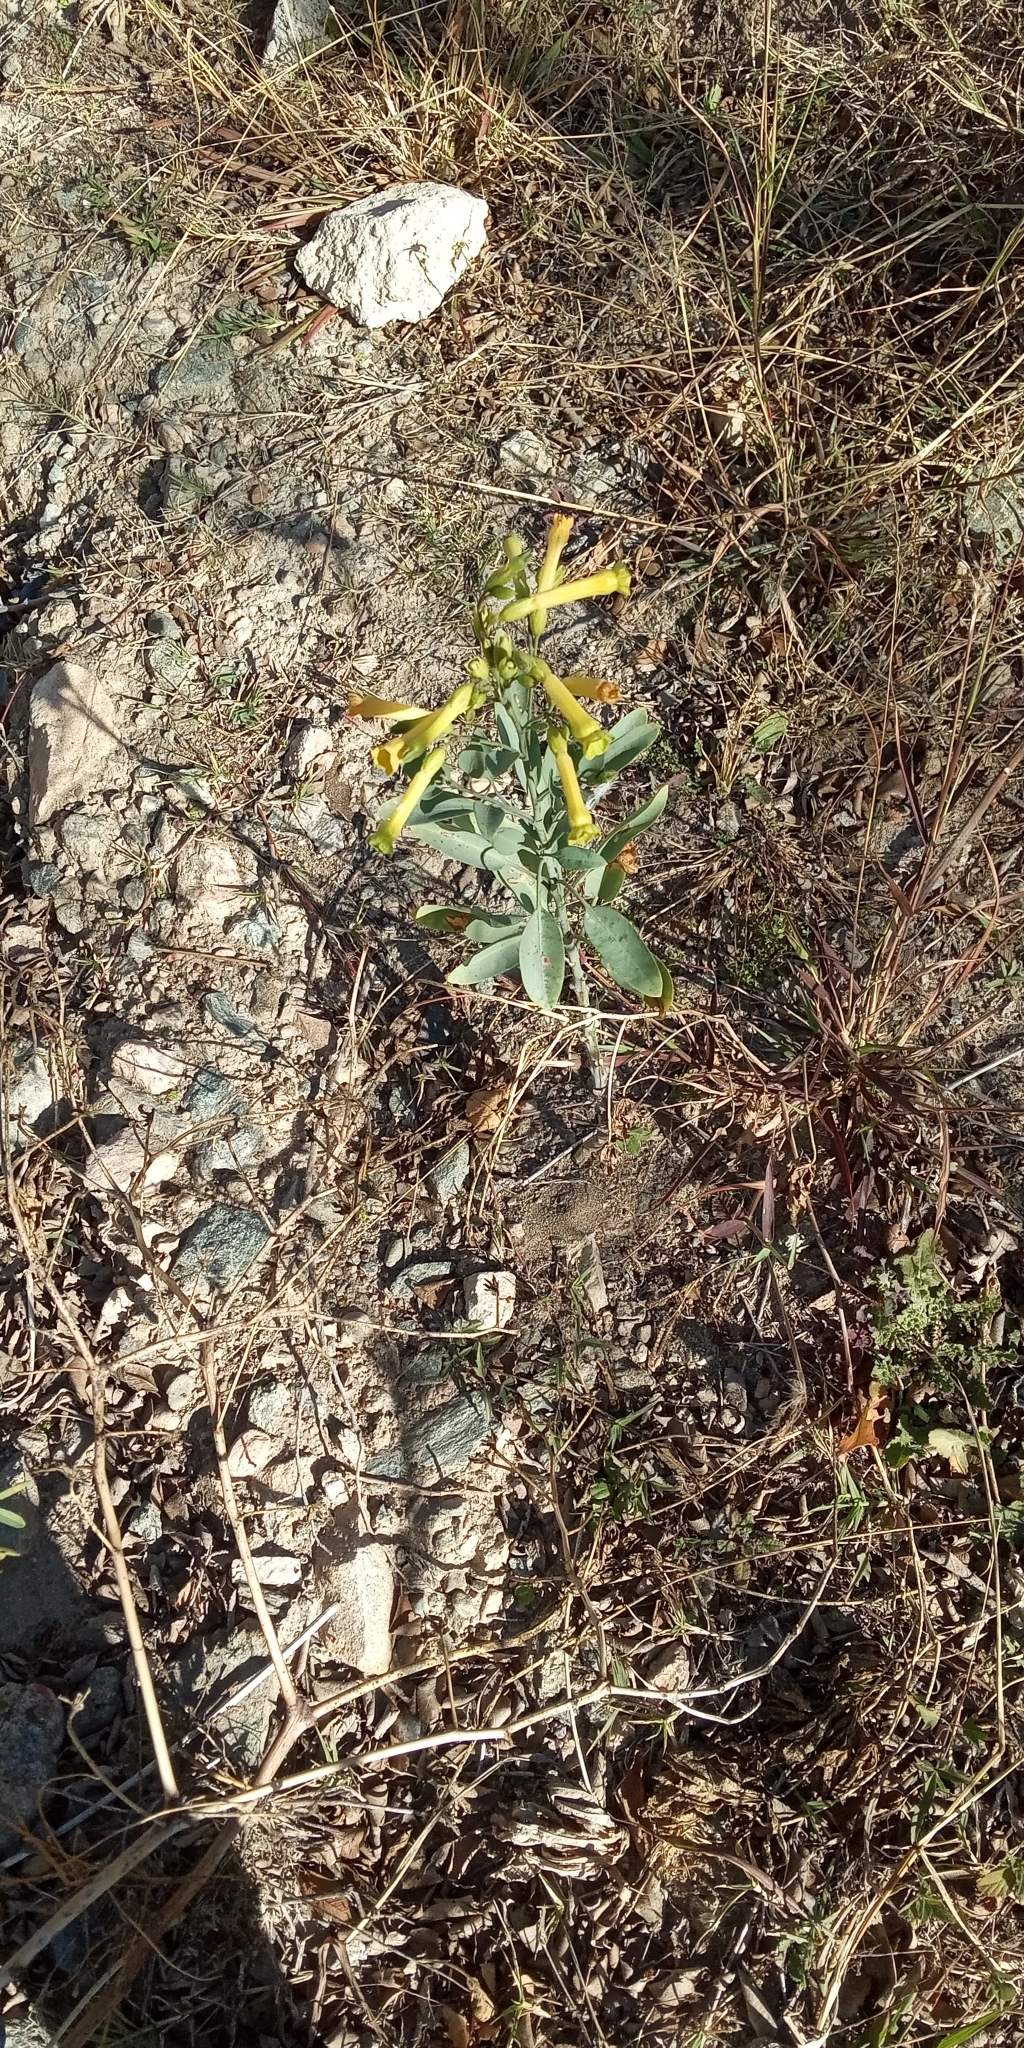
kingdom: Plantae
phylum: Tracheophyta
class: Magnoliopsida
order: Solanales
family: Solanaceae
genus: Nicotiana
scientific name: Nicotiana glauca
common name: Tree tobacco
